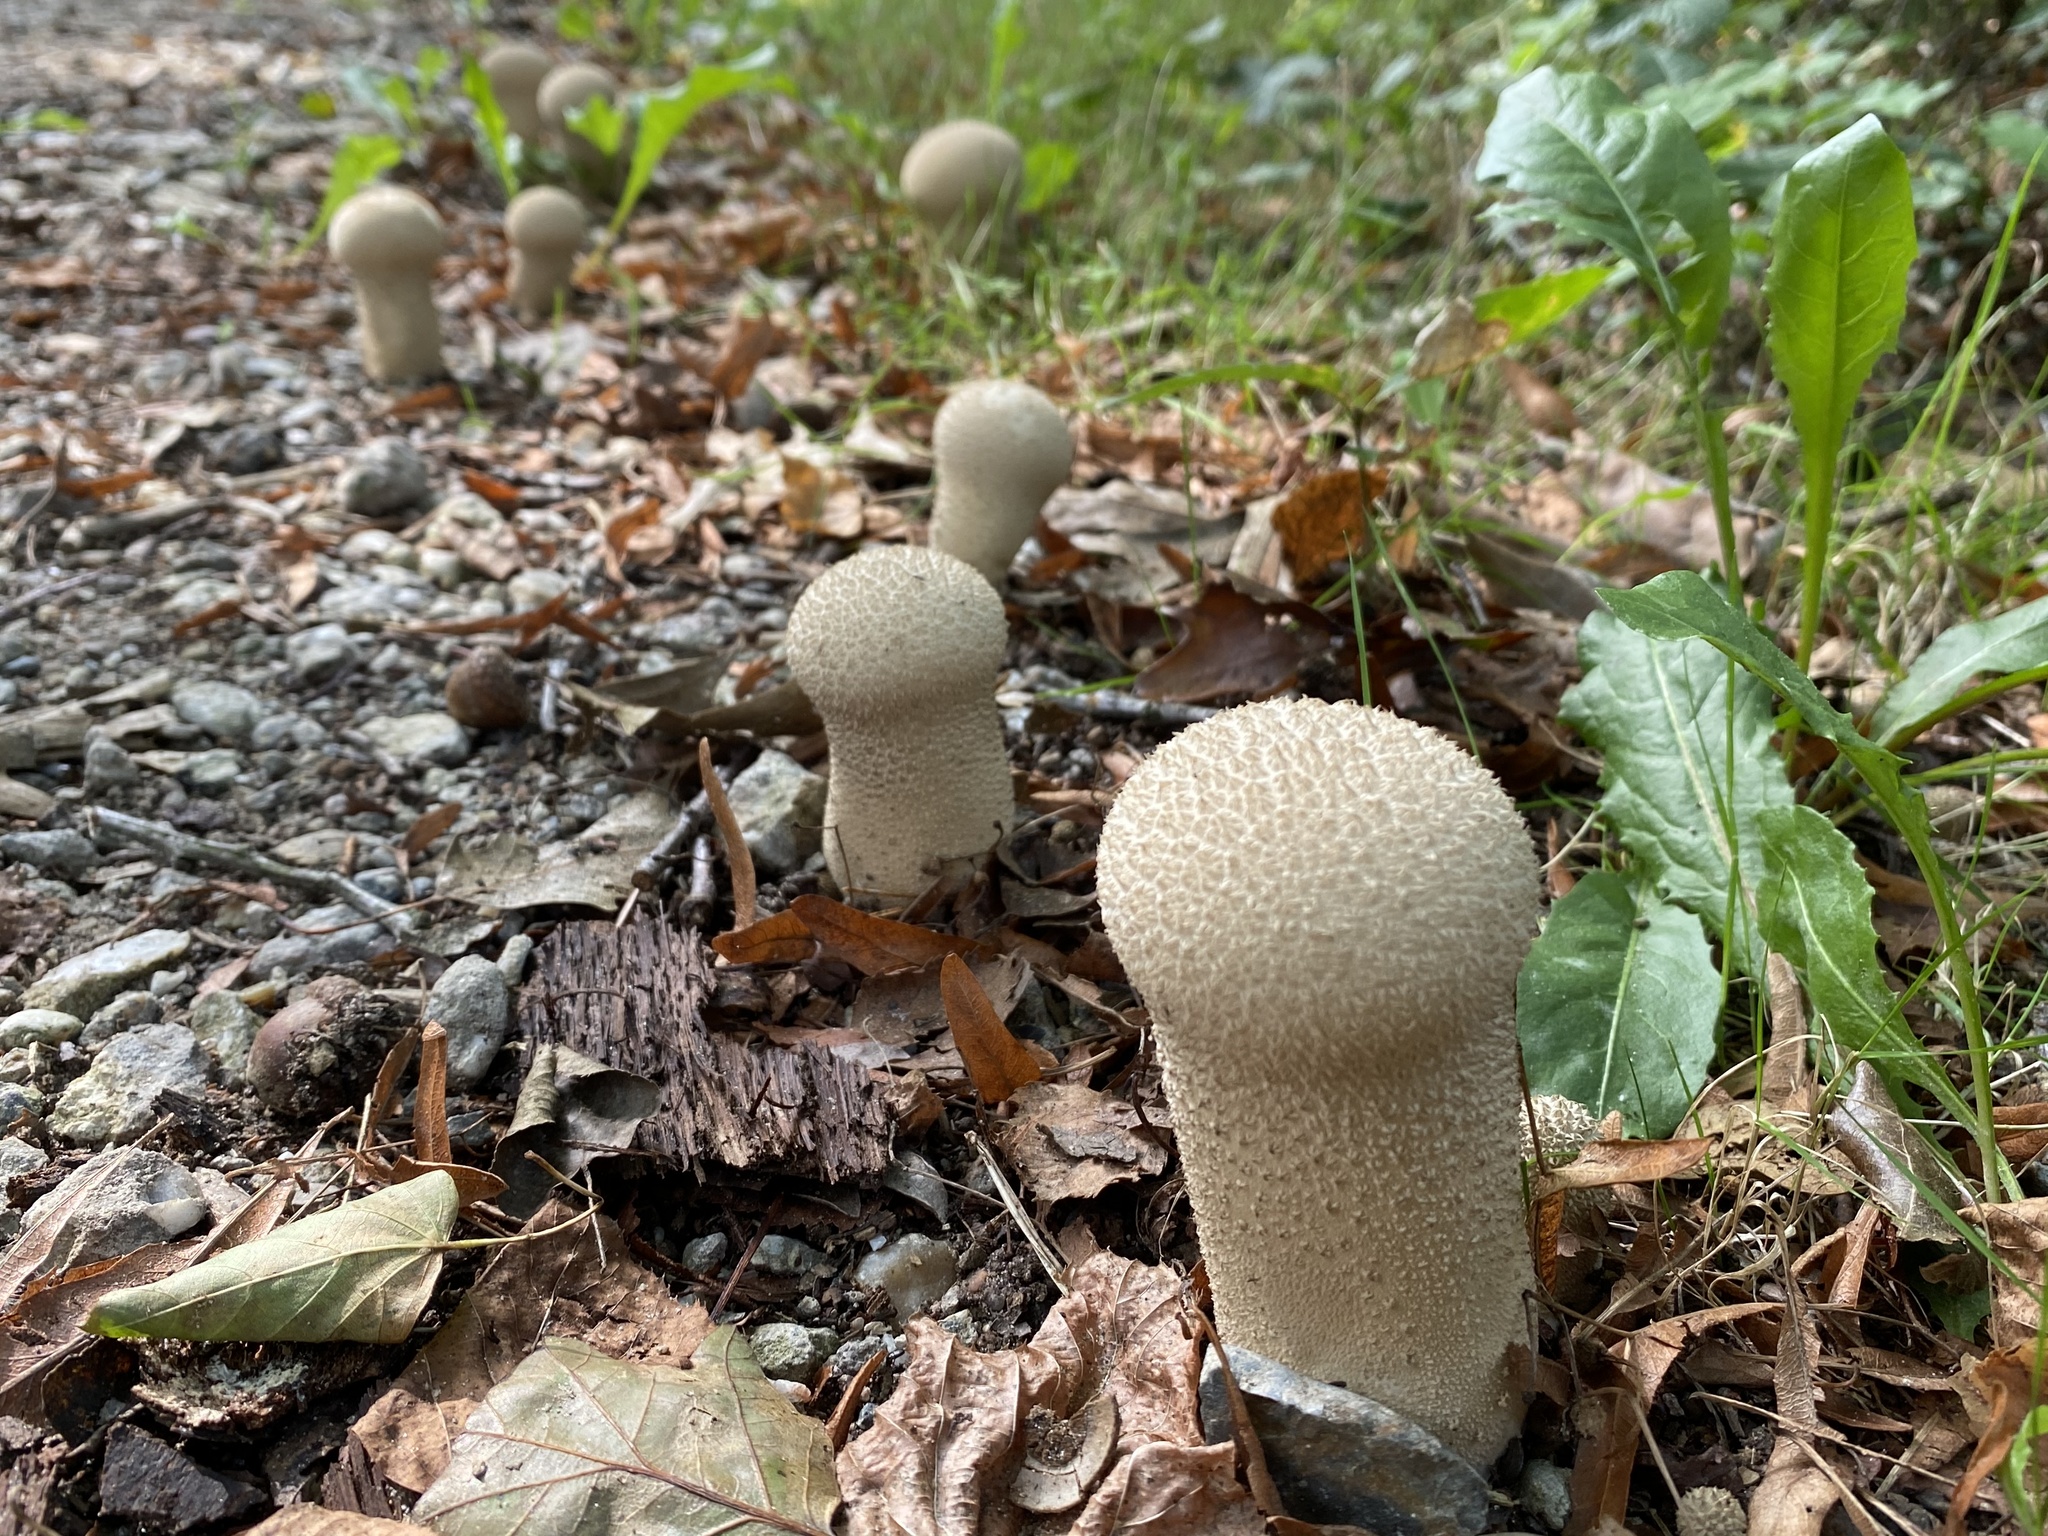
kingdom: Fungi
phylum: Basidiomycota
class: Agaricomycetes
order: Agaricales
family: Lycoperdaceae
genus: Lycoperdon
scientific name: Lycoperdon perlatum
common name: Common puffball
